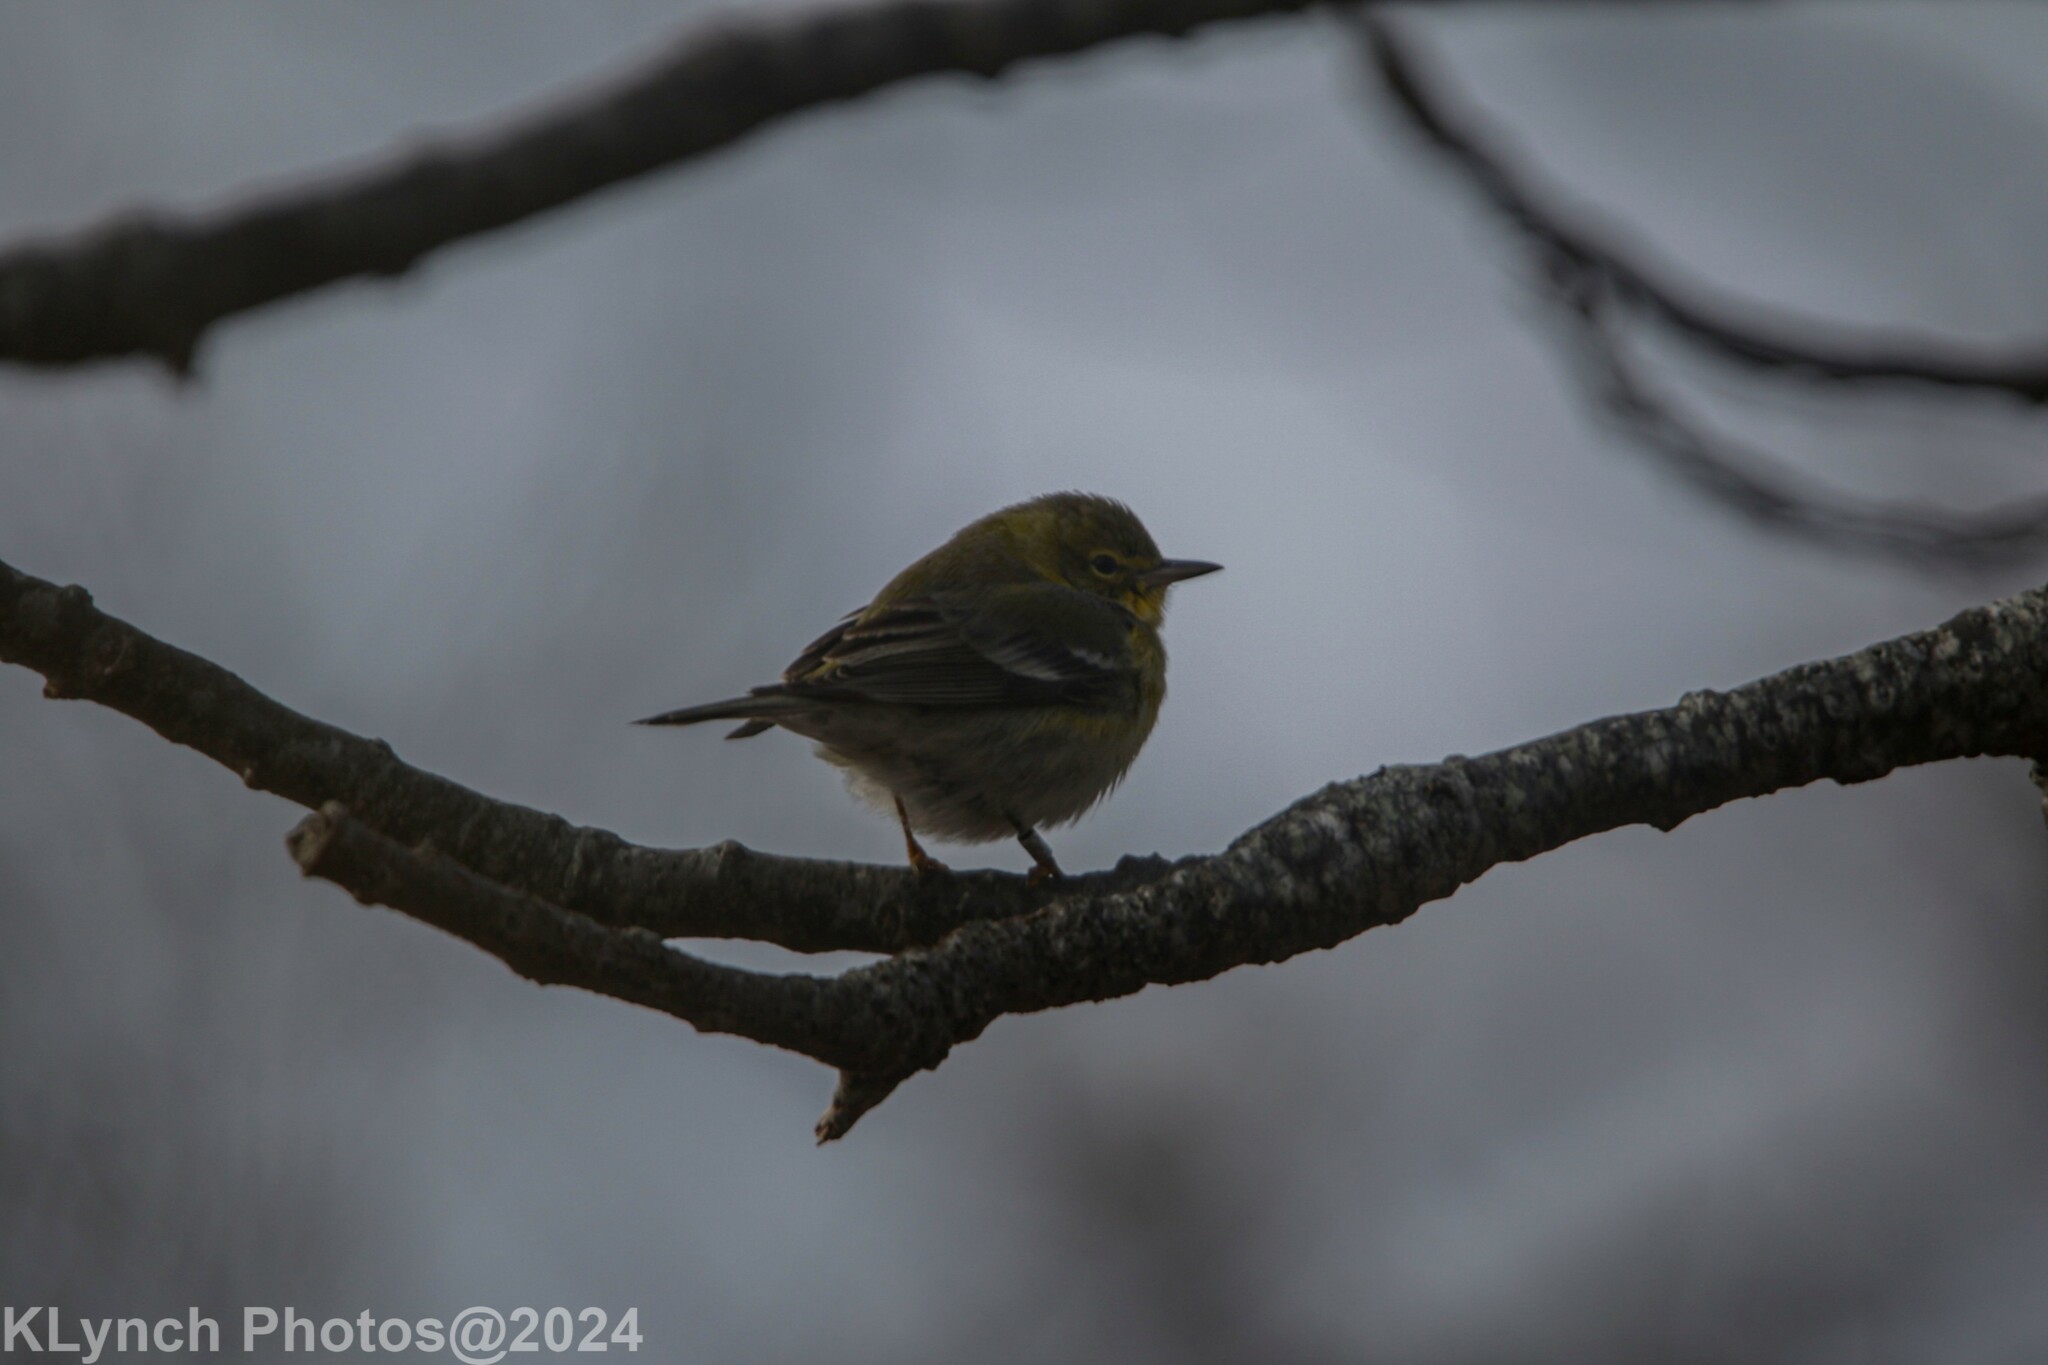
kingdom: Animalia
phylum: Chordata
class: Aves
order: Passeriformes
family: Parulidae
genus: Setophaga
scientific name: Setophaga pinus
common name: Pine warbler
